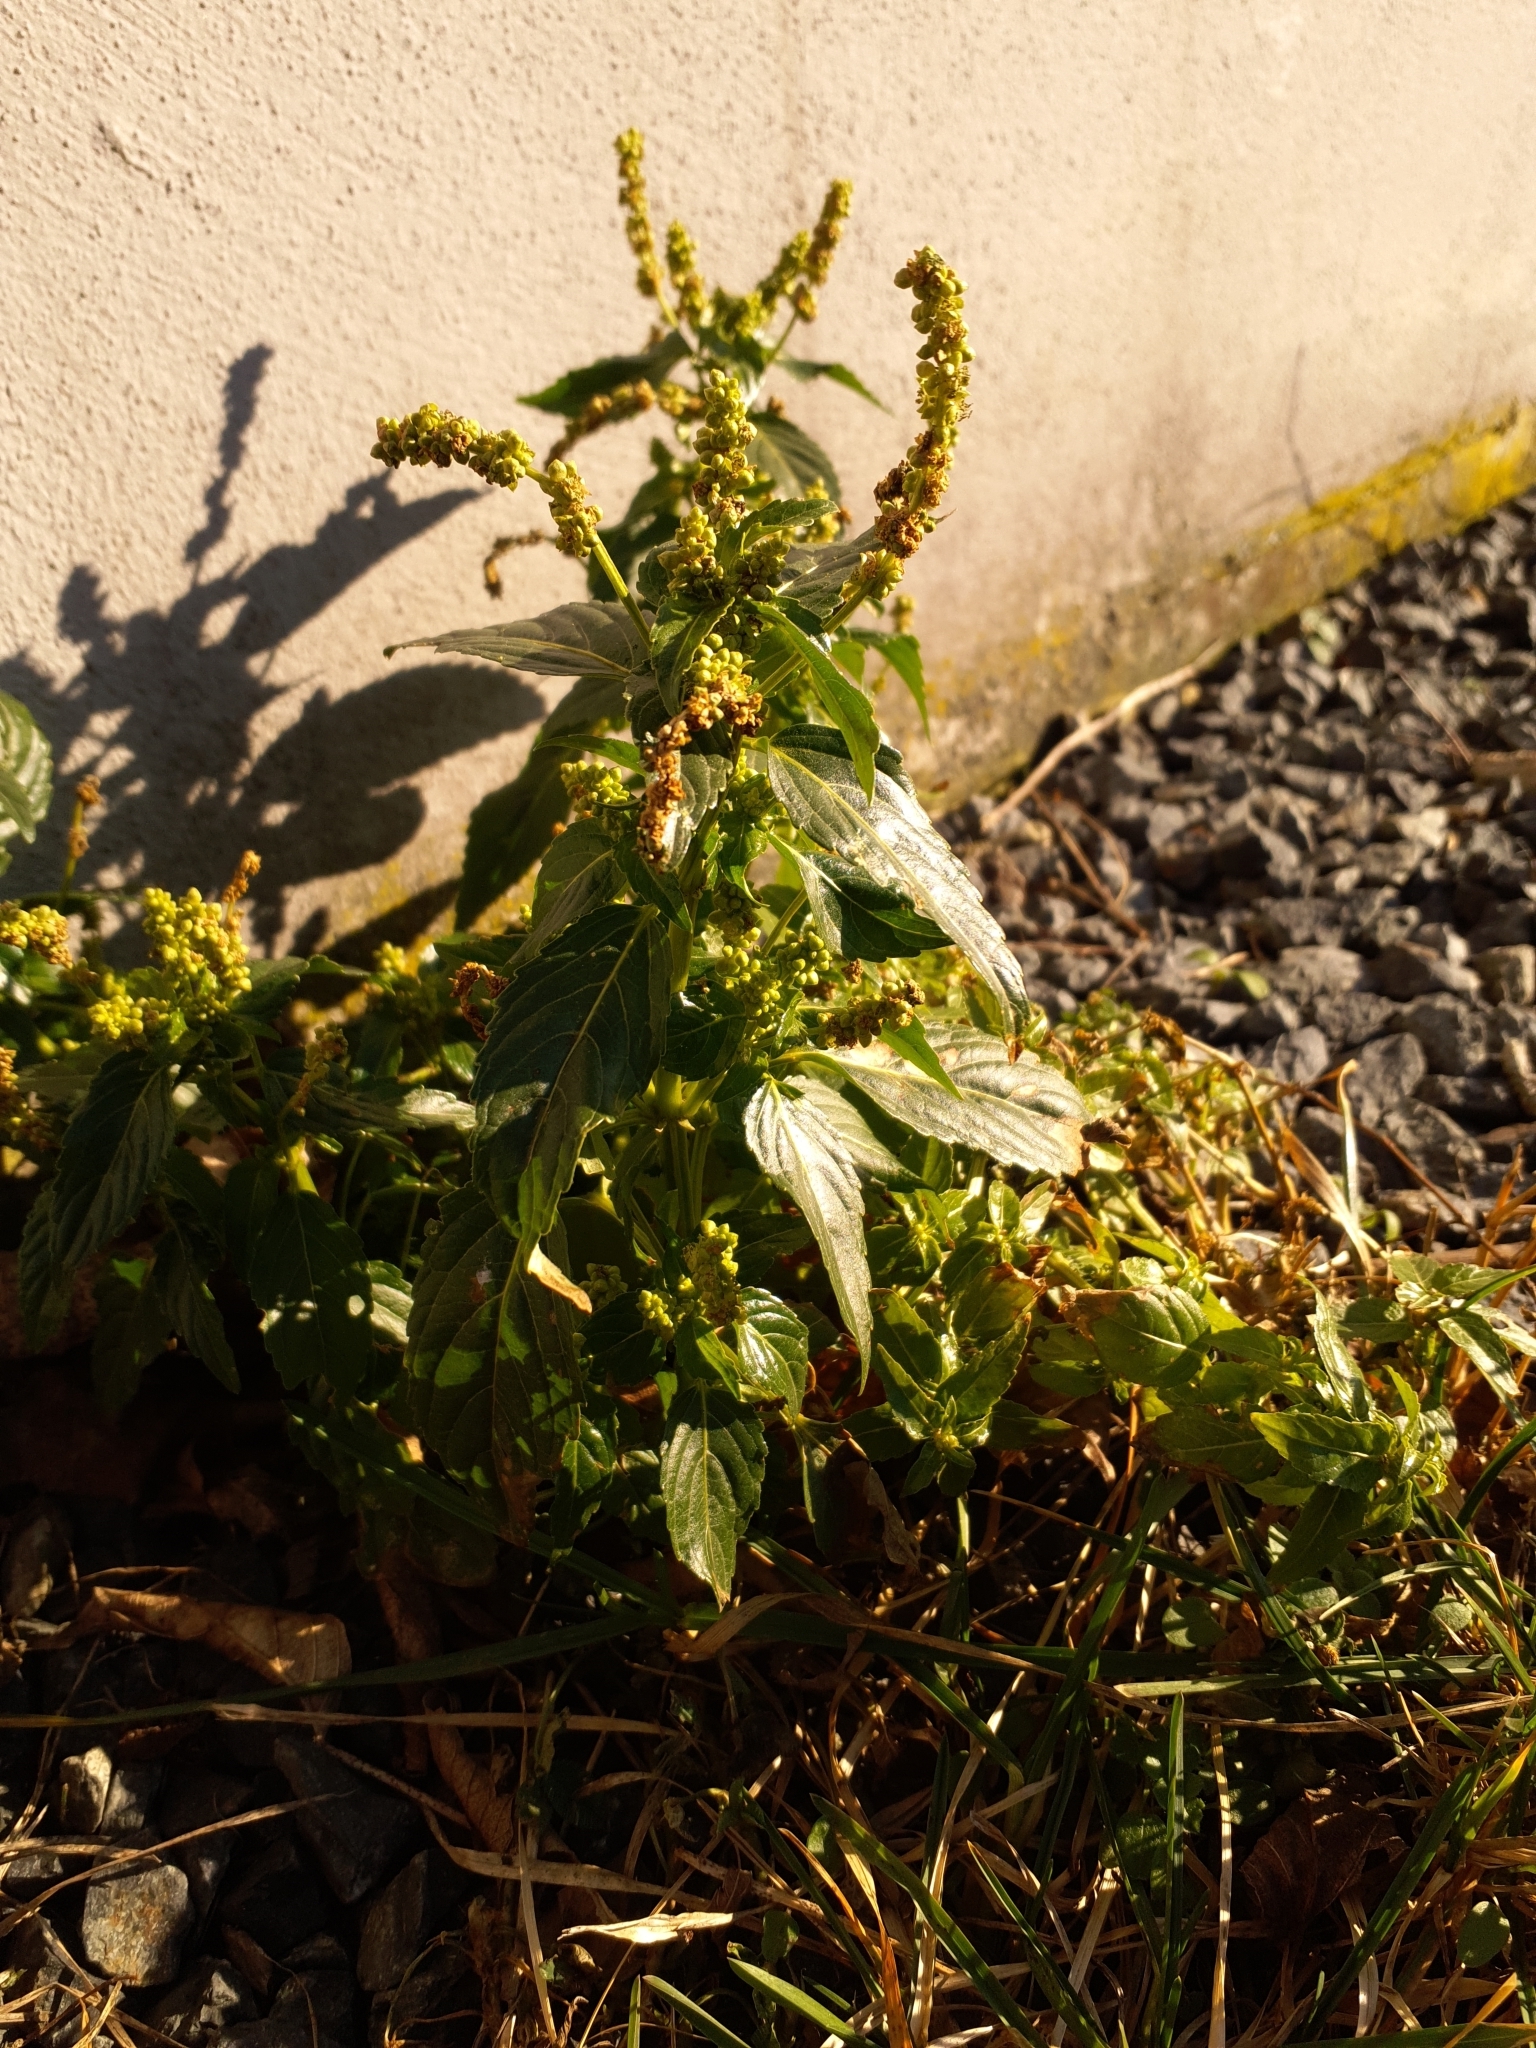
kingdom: Plantae
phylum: Tracheophyta
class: Magnoliopsida
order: Malpighiales
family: Euphorbiaceae
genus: Mercurialis
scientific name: Mercurialis annua
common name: Annual mercury
